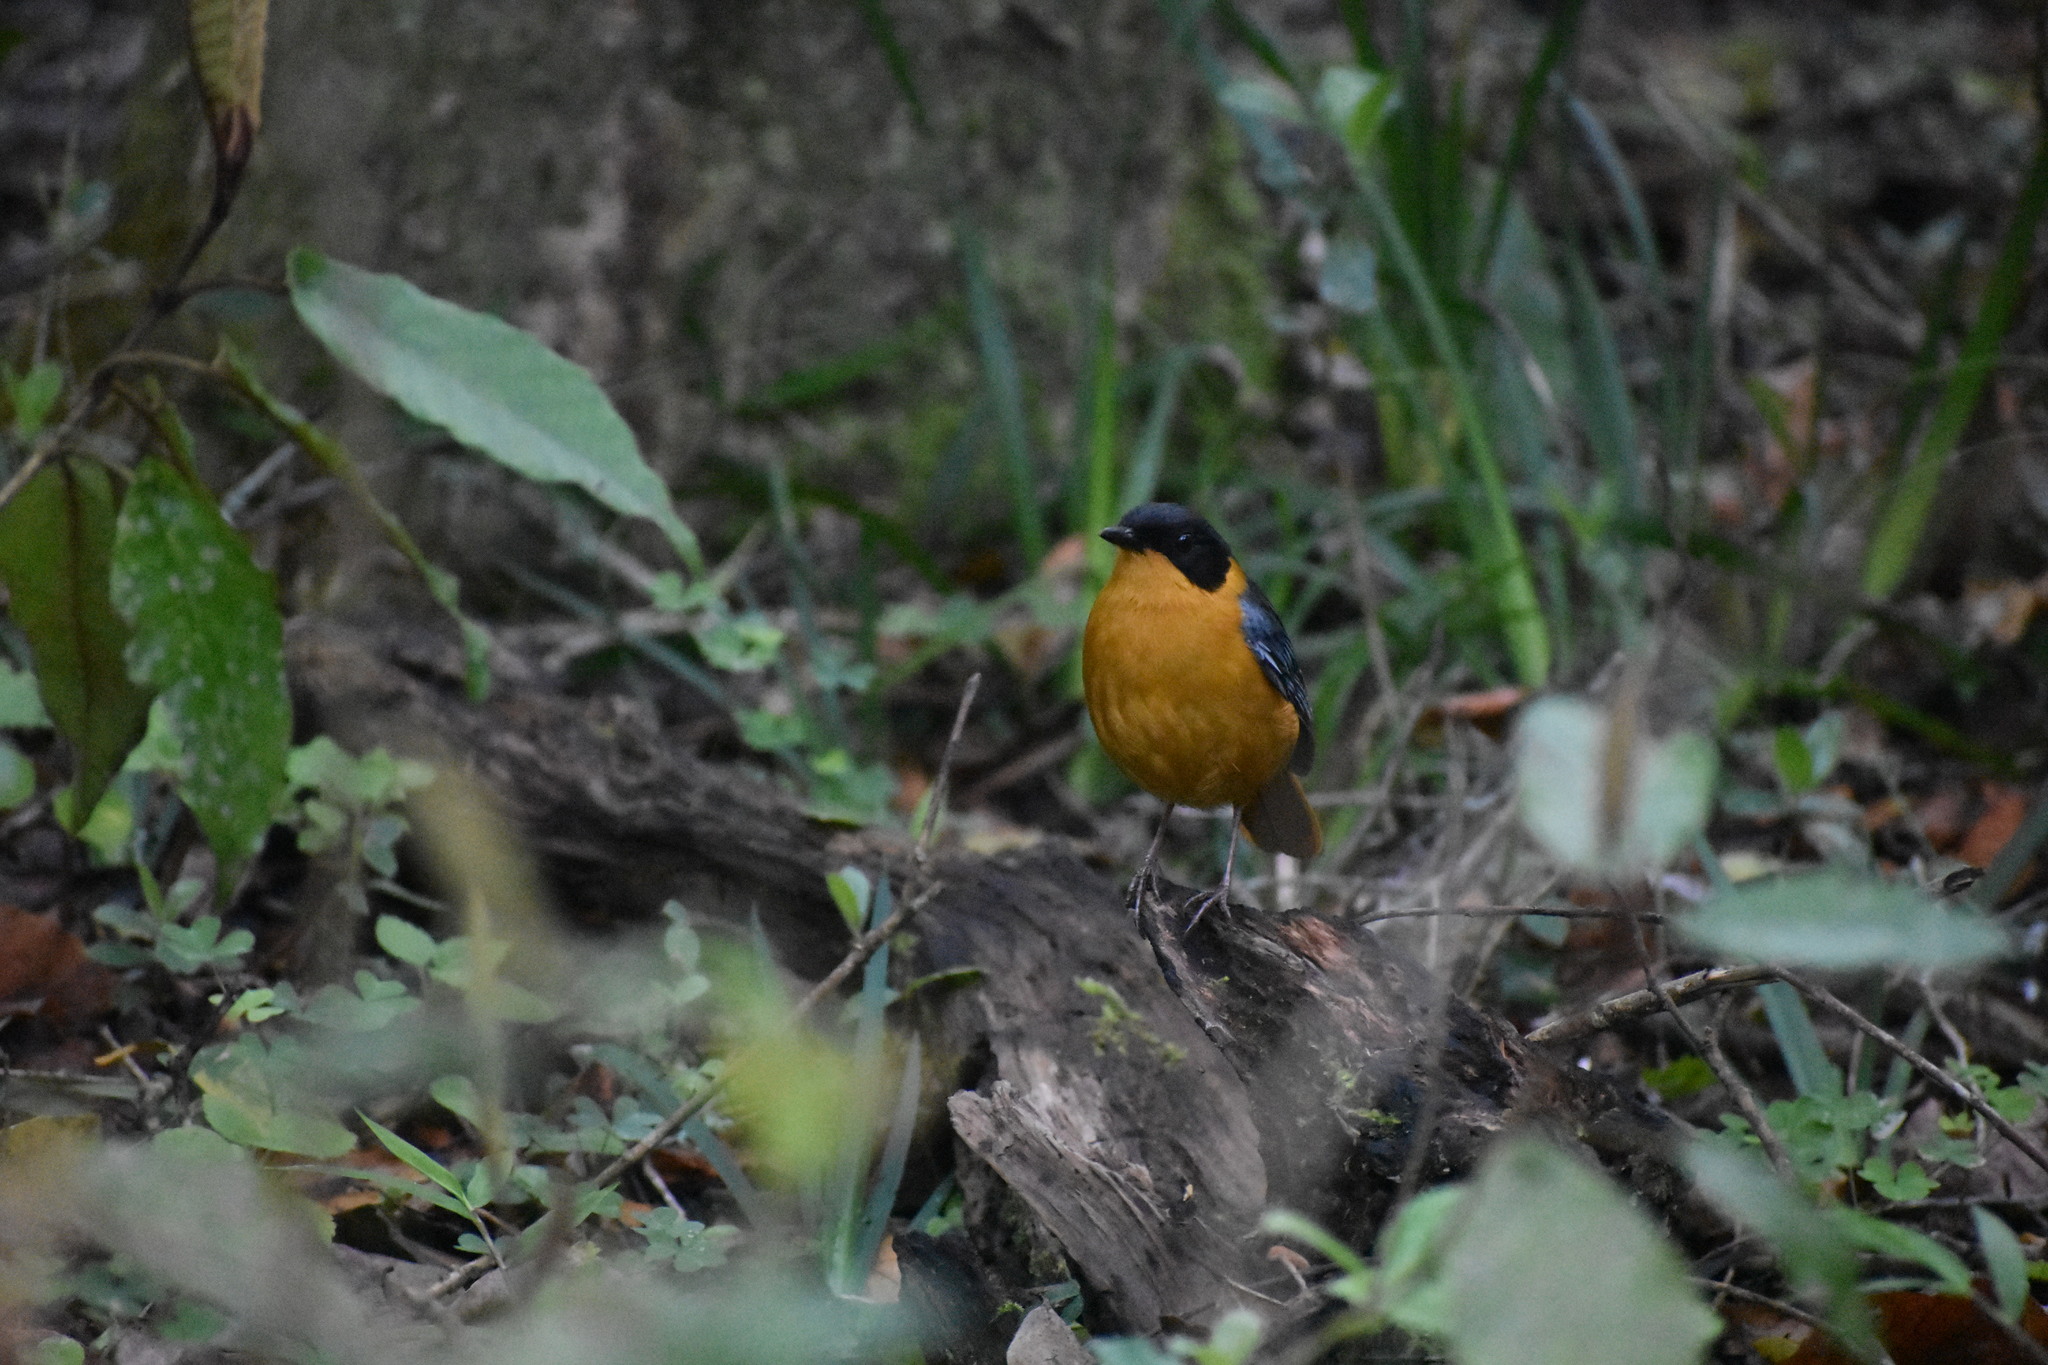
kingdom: Animalia
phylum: Chordata
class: Aves
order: Passeriformes
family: Muscicapidae
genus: Cossypha
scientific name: Cossypha dichroa
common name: Chorister robin-chat
